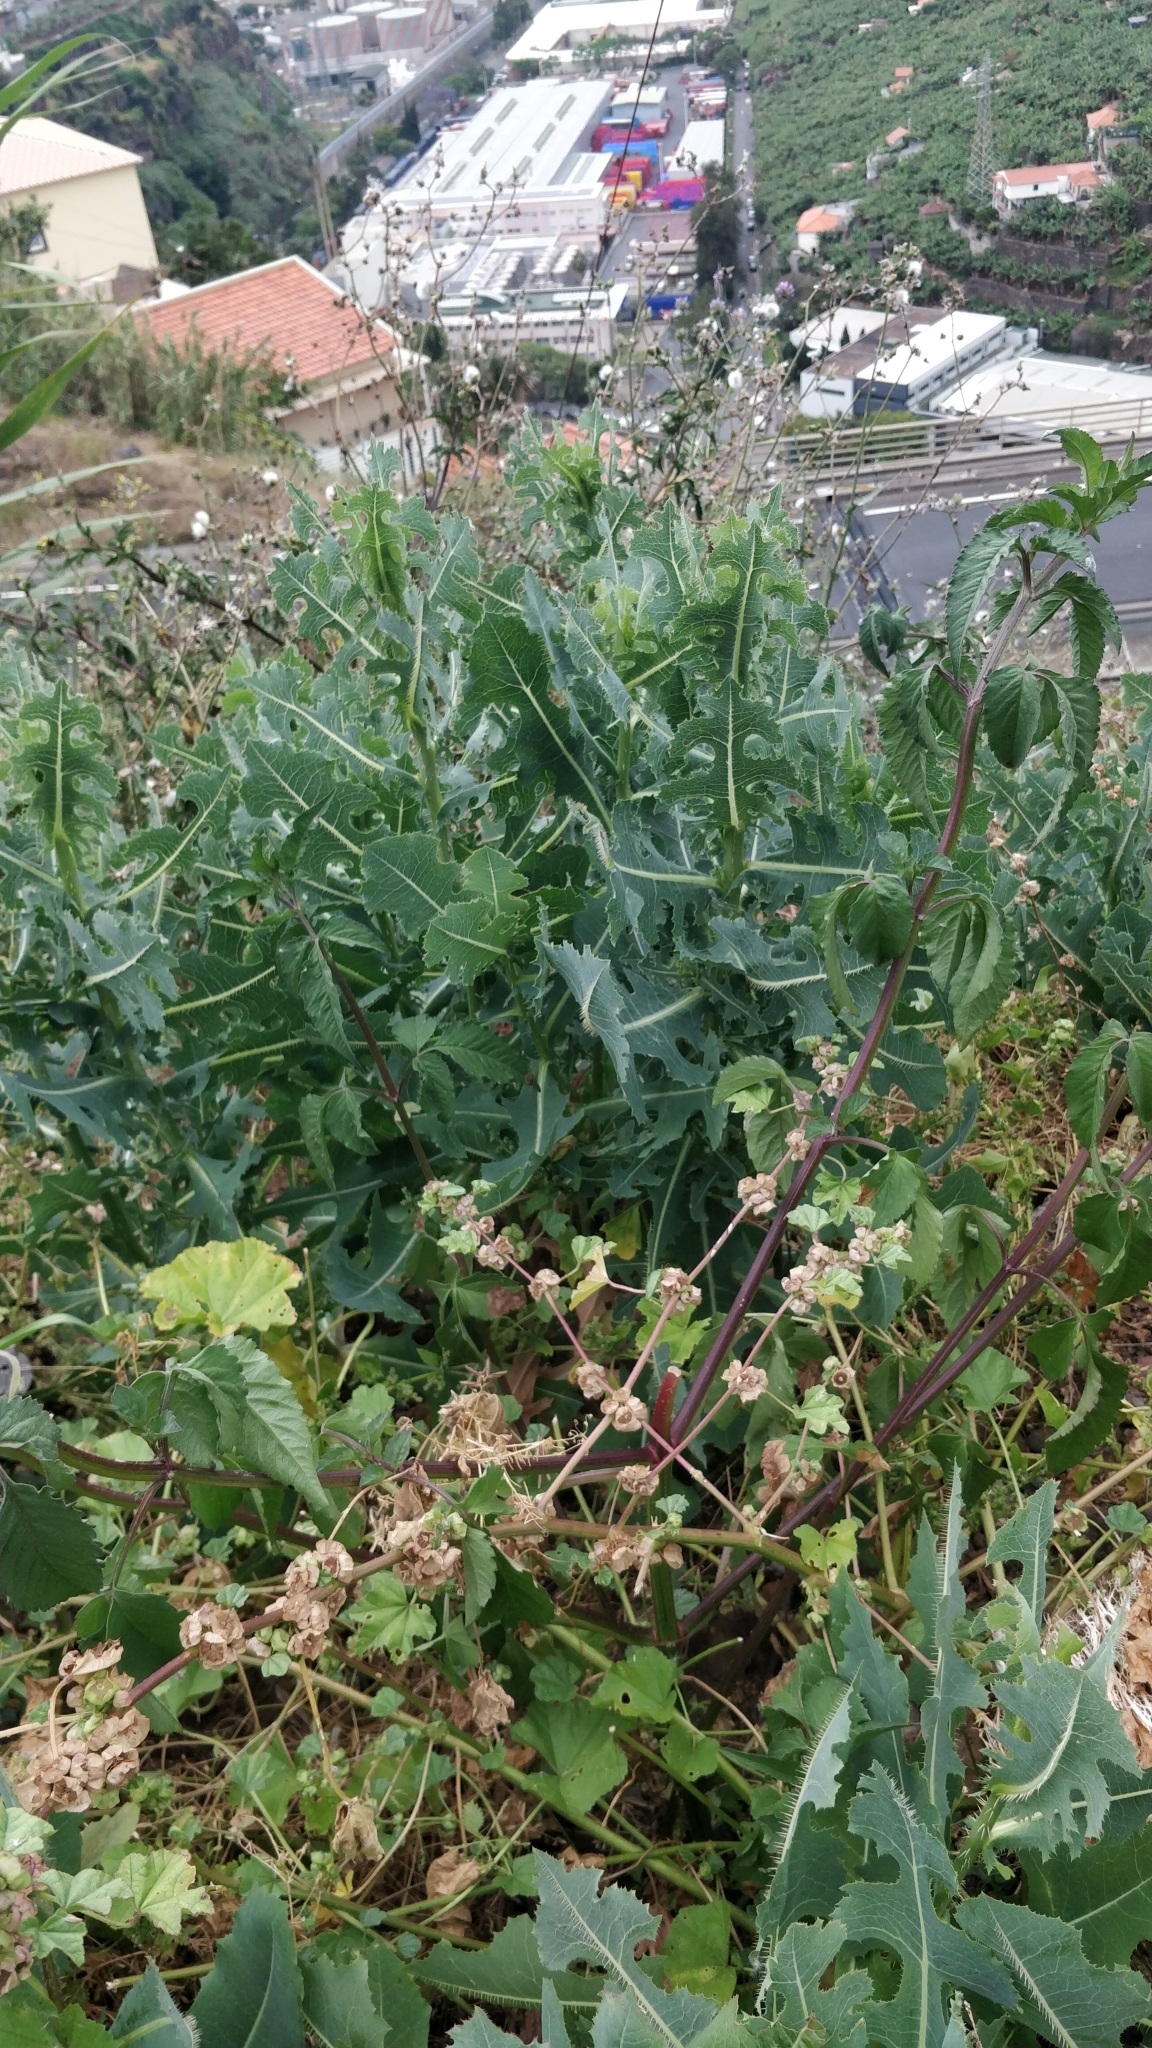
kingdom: Plantae
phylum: Tracheophyta
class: Magnoliopsida
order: Asterales
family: Asteraceae
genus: Lactuca
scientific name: Lactuca serriola
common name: Prickly lettuce
